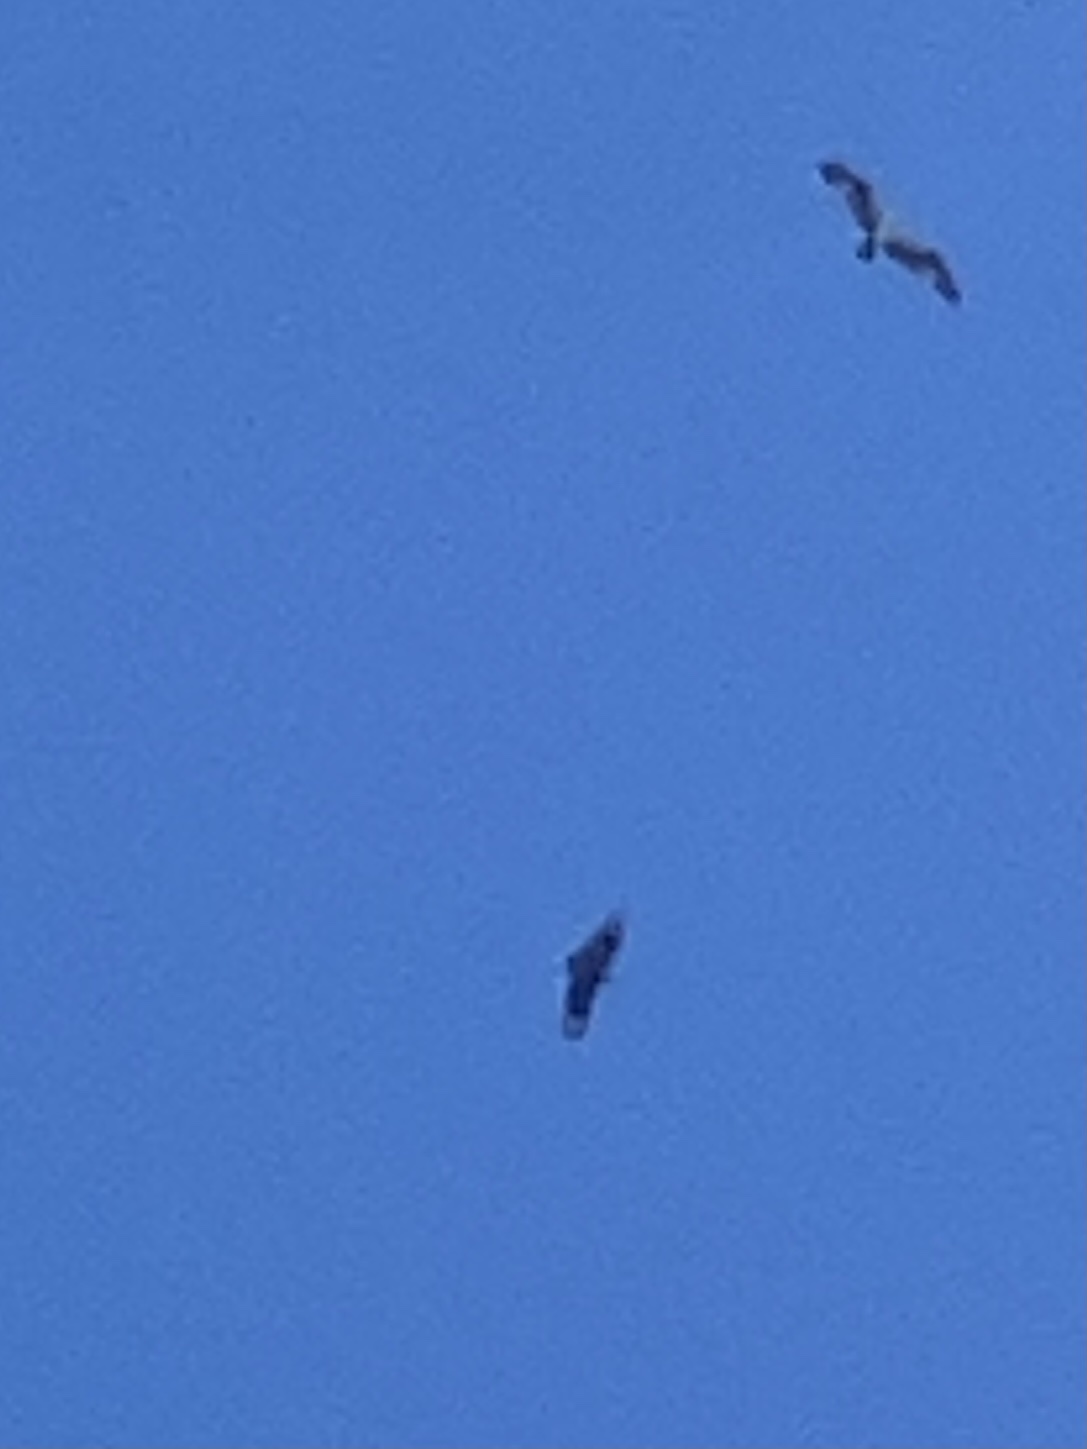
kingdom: Animalia
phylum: Chordata
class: Aves
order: Accipitriformes
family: Cathartidae
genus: Coragyps
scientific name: Coragyps atratus
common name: Black vulture
